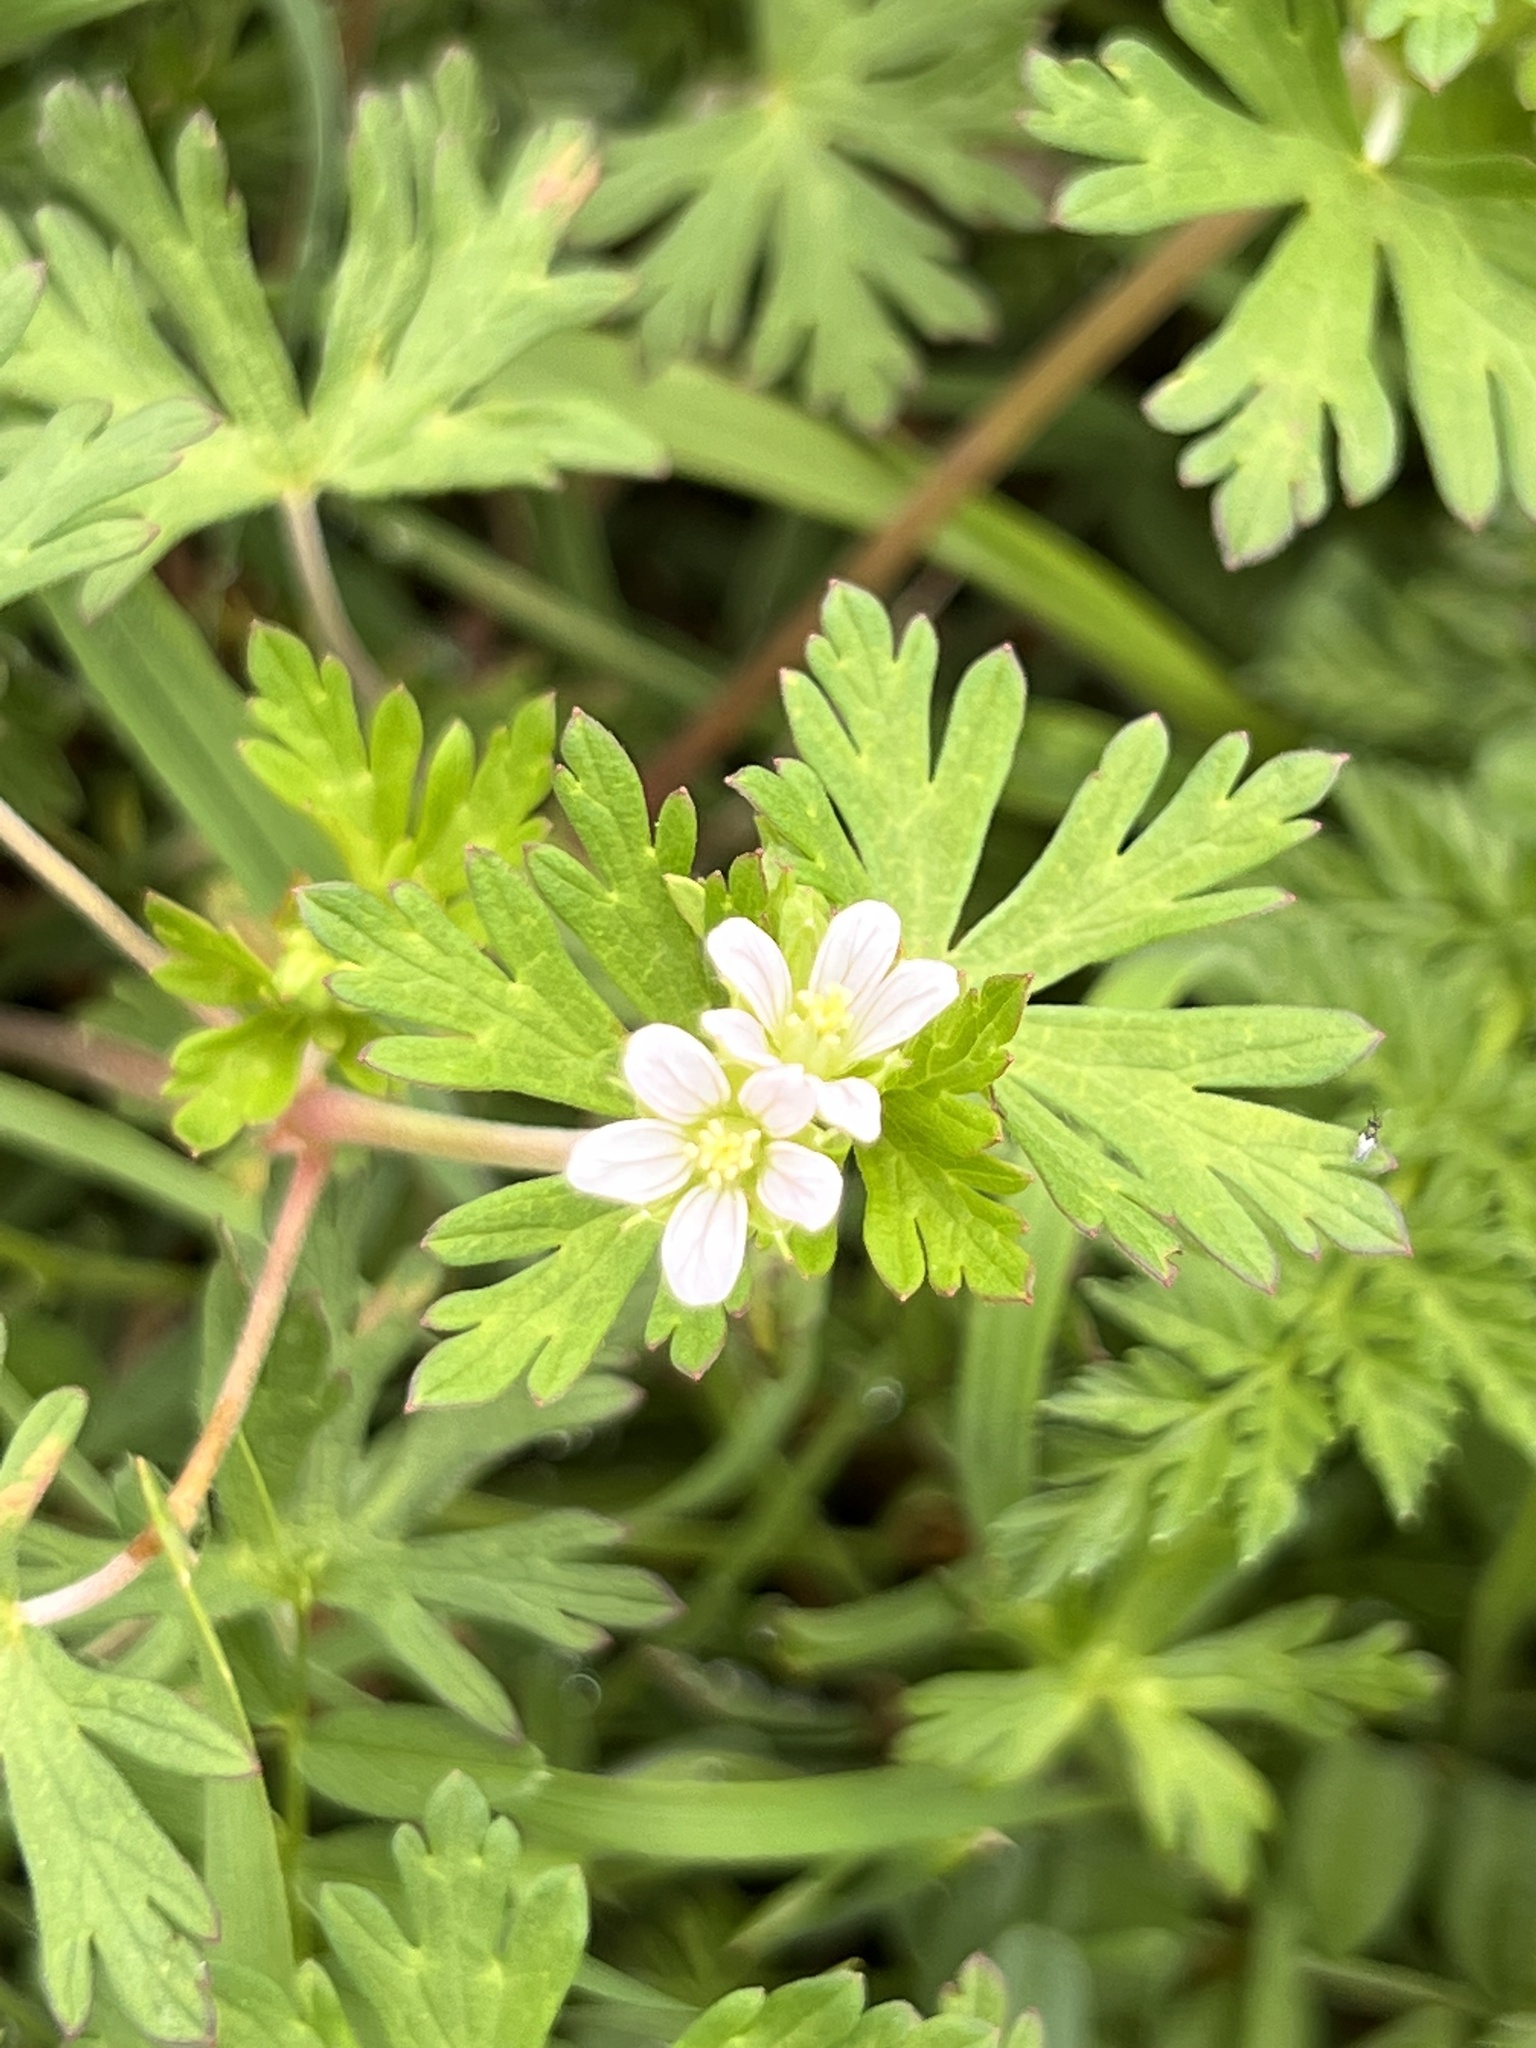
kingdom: Plantae
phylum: Tracheophyta
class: Magnoliopsida
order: Geraniales
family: Geraniaceae
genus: Geranium
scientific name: Geranium carolinianum
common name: Carolina crane's-bill
